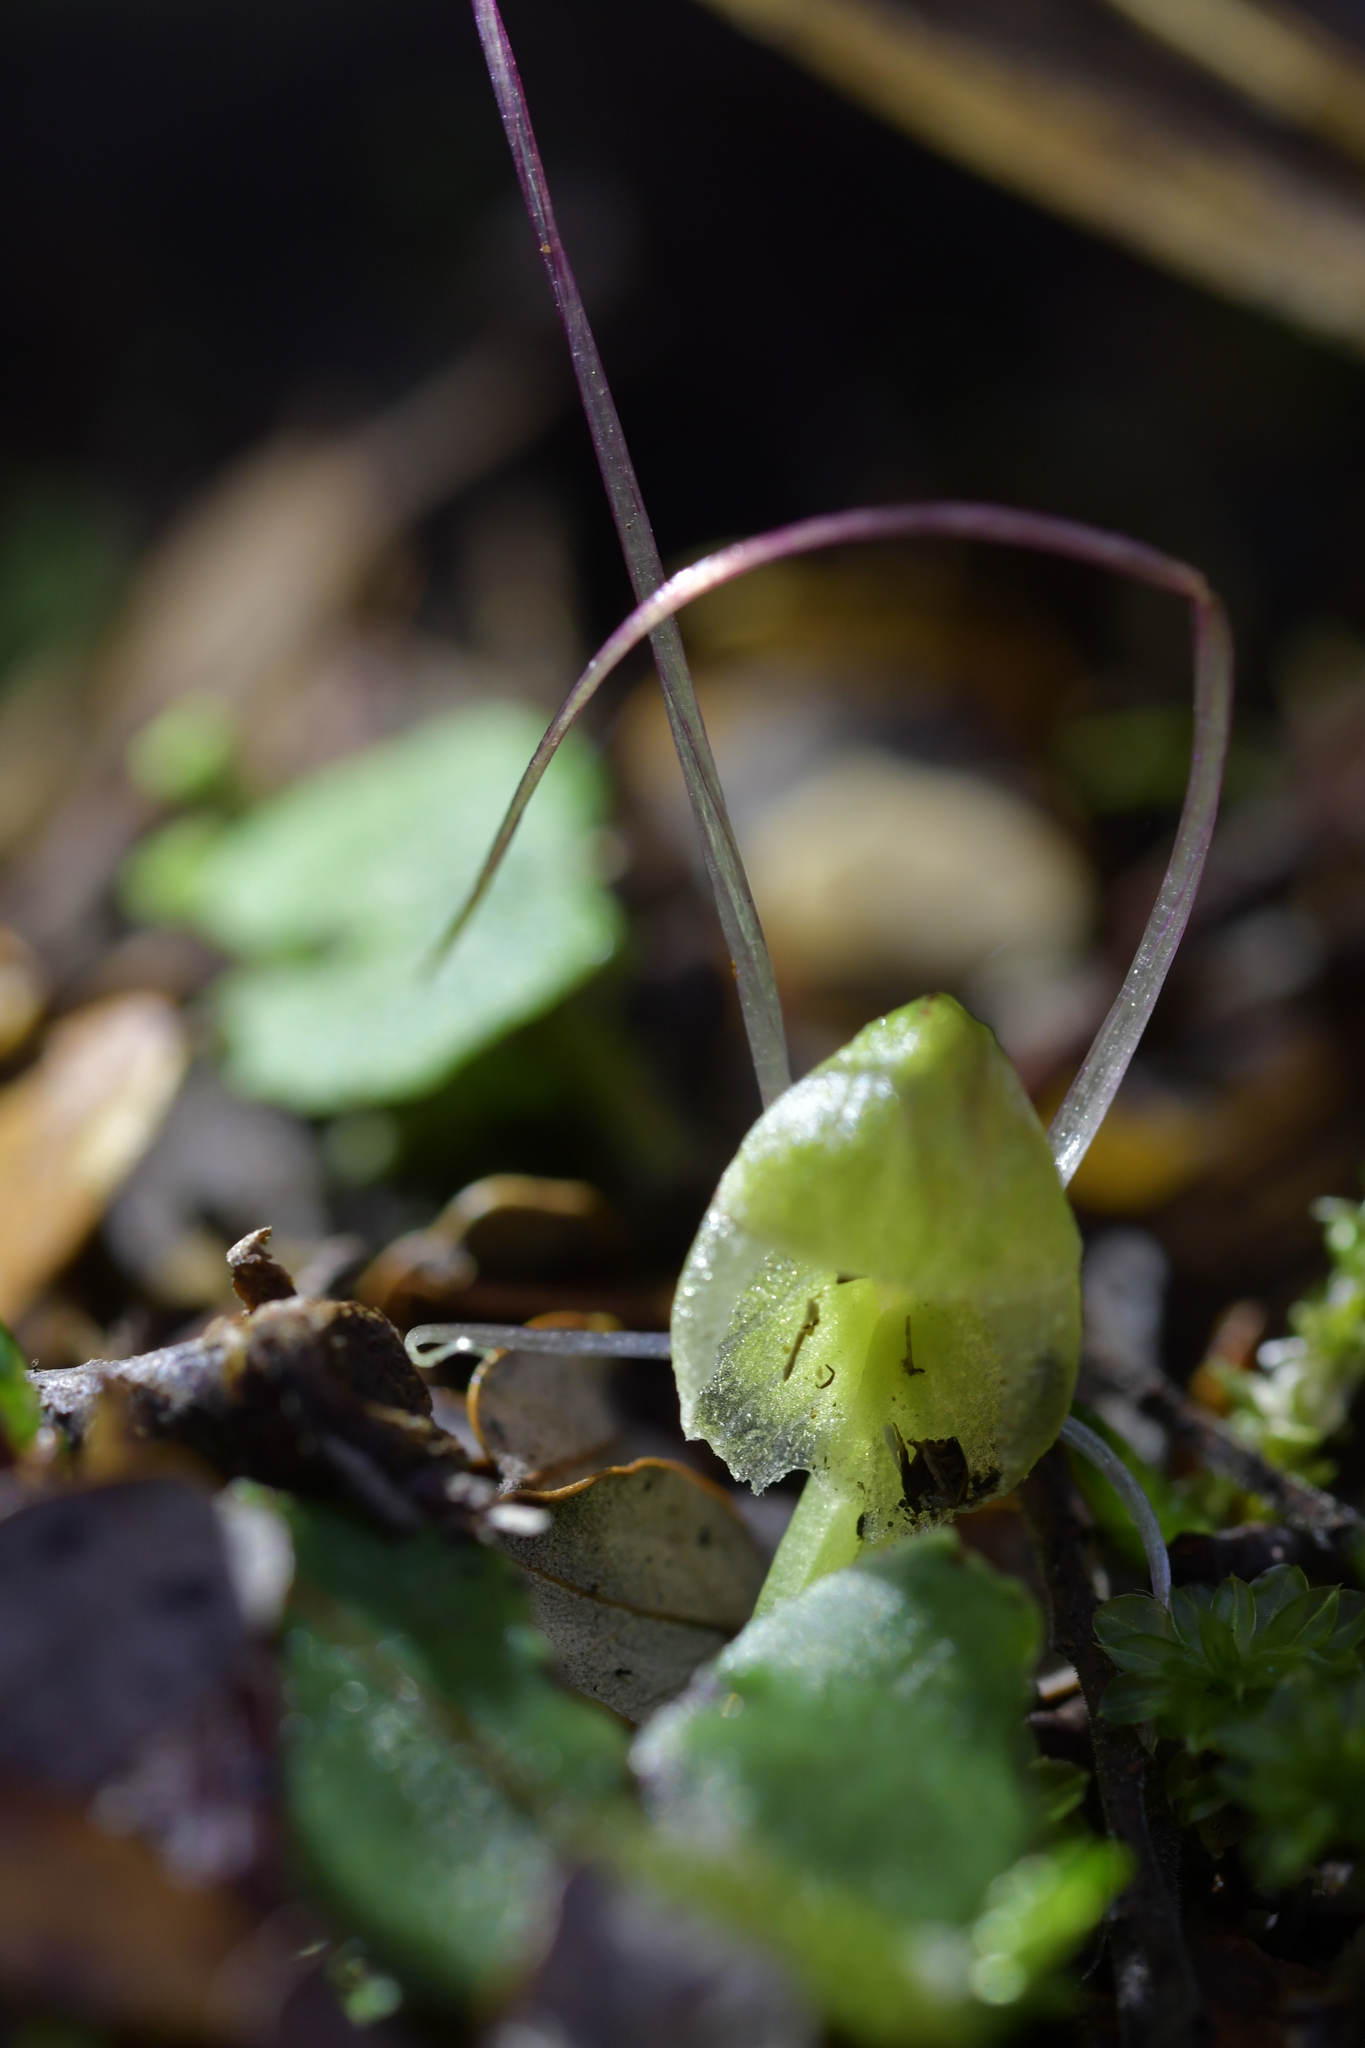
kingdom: Plantae
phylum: Tracheophyta
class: Liliopsida
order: Asparagales
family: Orchidaceae
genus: Corybas
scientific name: Corybas walliae
